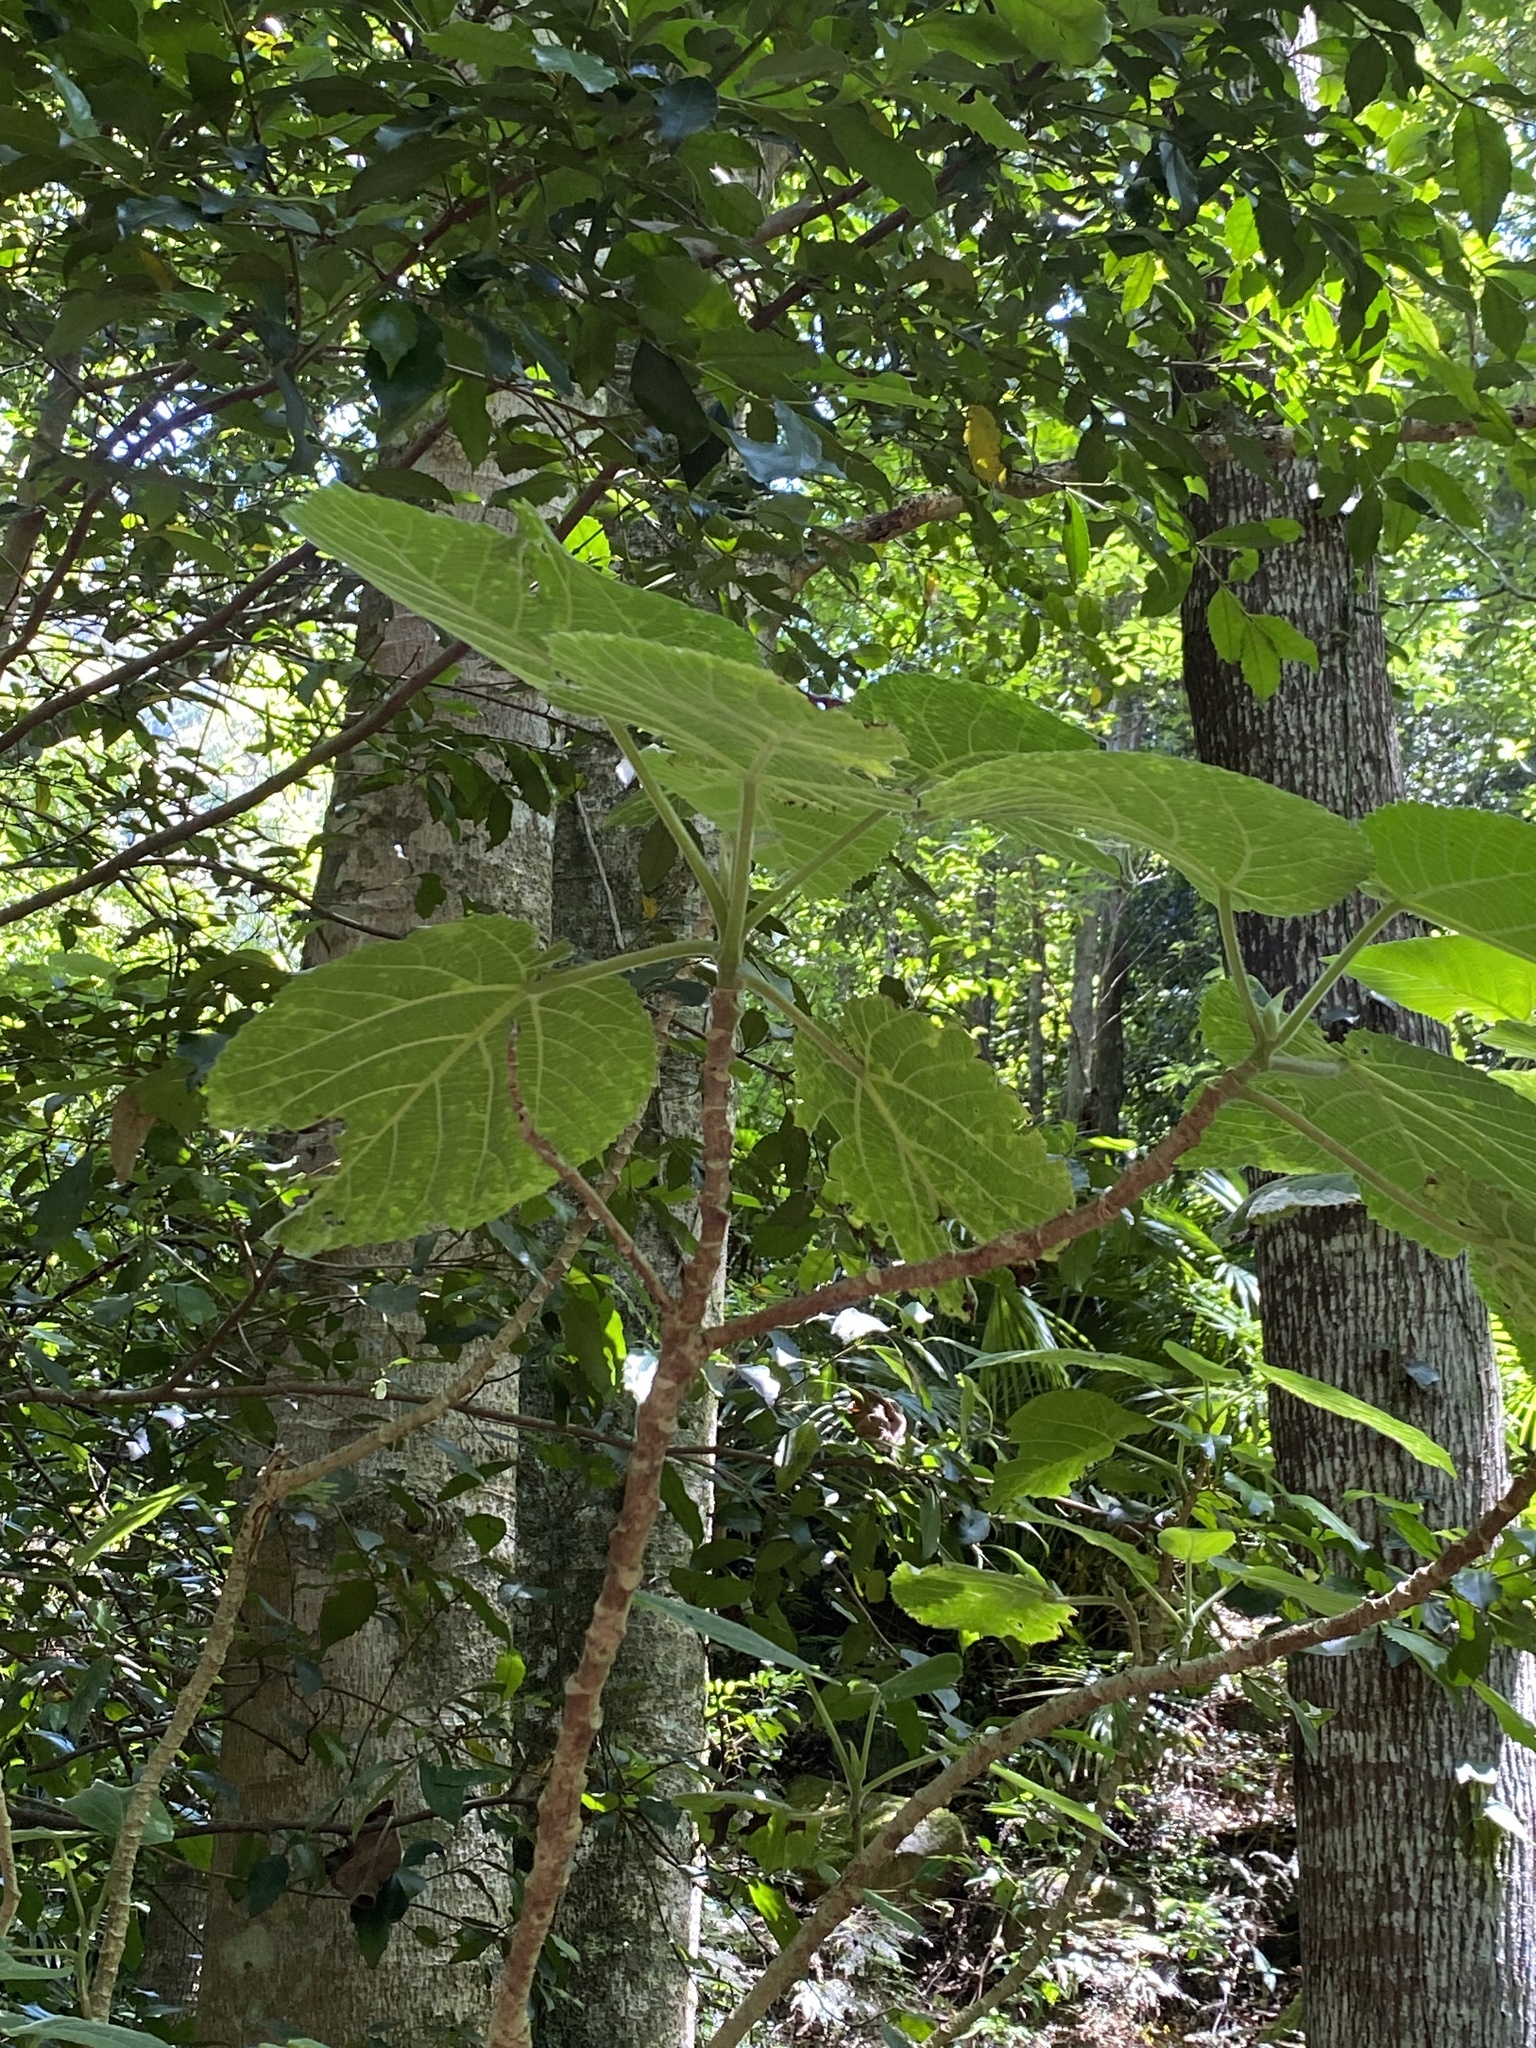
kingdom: Plantae
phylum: Tracheophyta
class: Magnoliopsida
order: Rosales
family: Urticaceae
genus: Dendrocnide
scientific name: Dendrocnide excelsa
